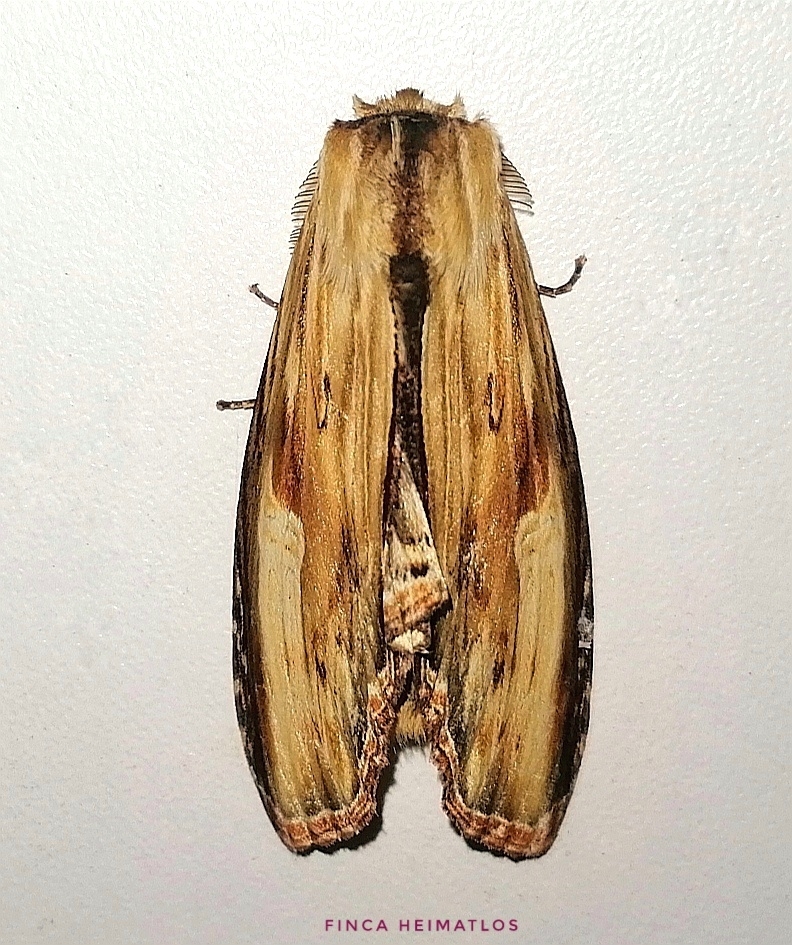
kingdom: Animalia
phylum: Arthropoda
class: Insecta
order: Lepidoptera
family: Notodontidae
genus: Truncaptera
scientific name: Truncaptera
